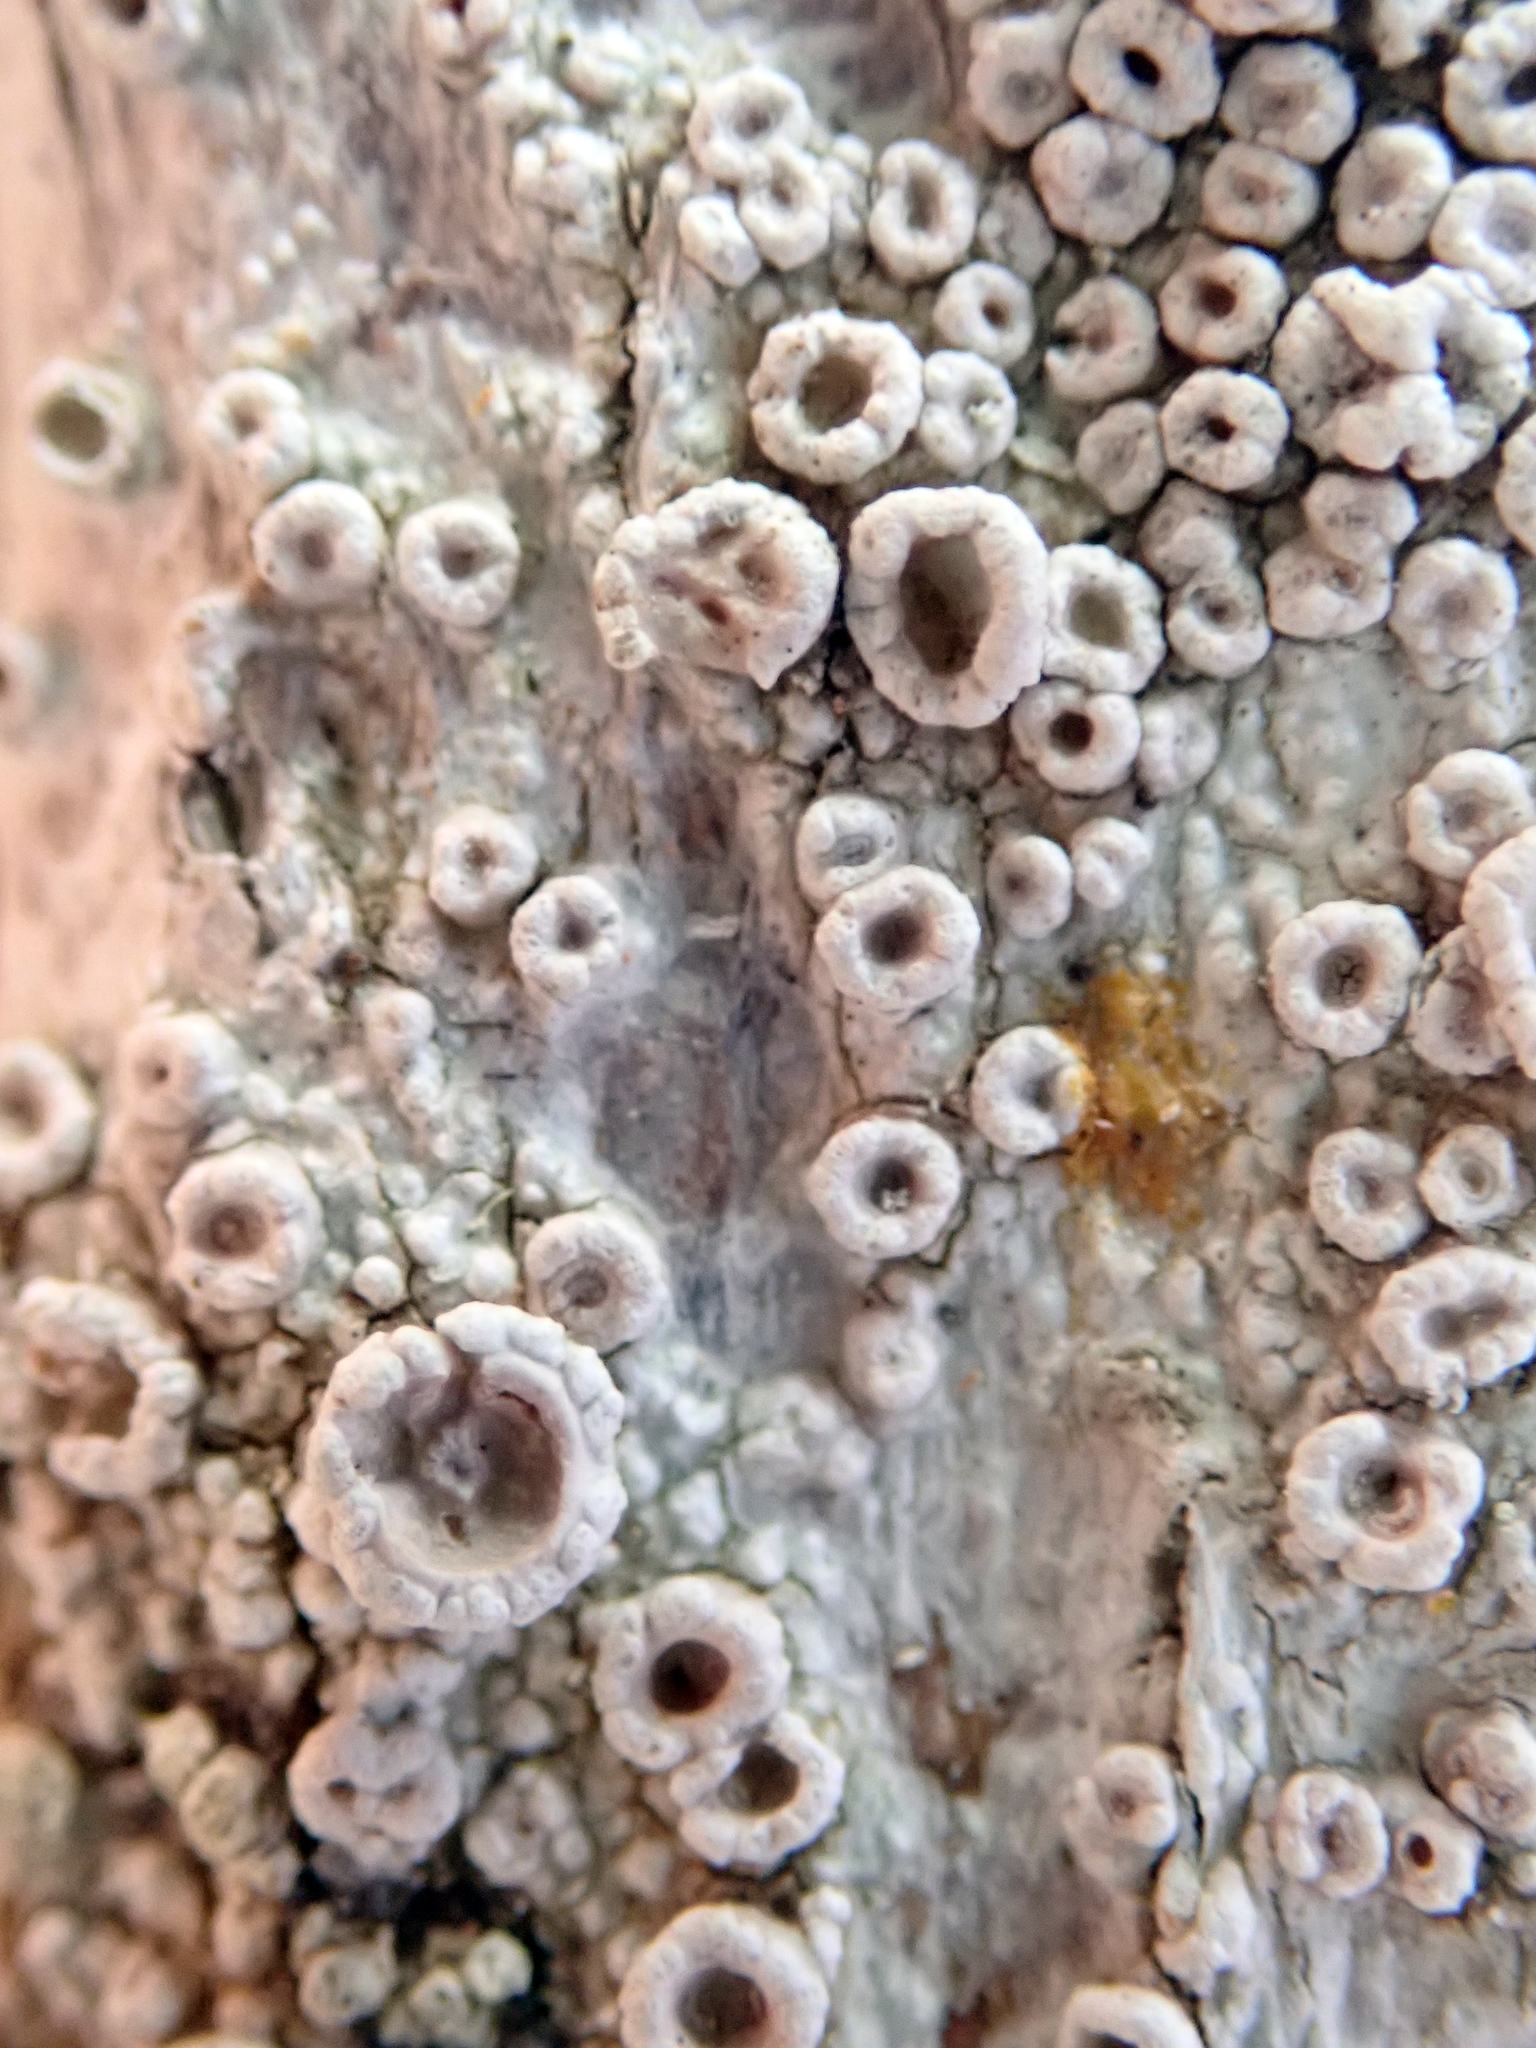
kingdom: Fungi
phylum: Ascomycota
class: Lecanoromycetes
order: Pertusariales
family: Ochrolechiaceae
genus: Ochrolechia
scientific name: Ochrolechia pallescens
